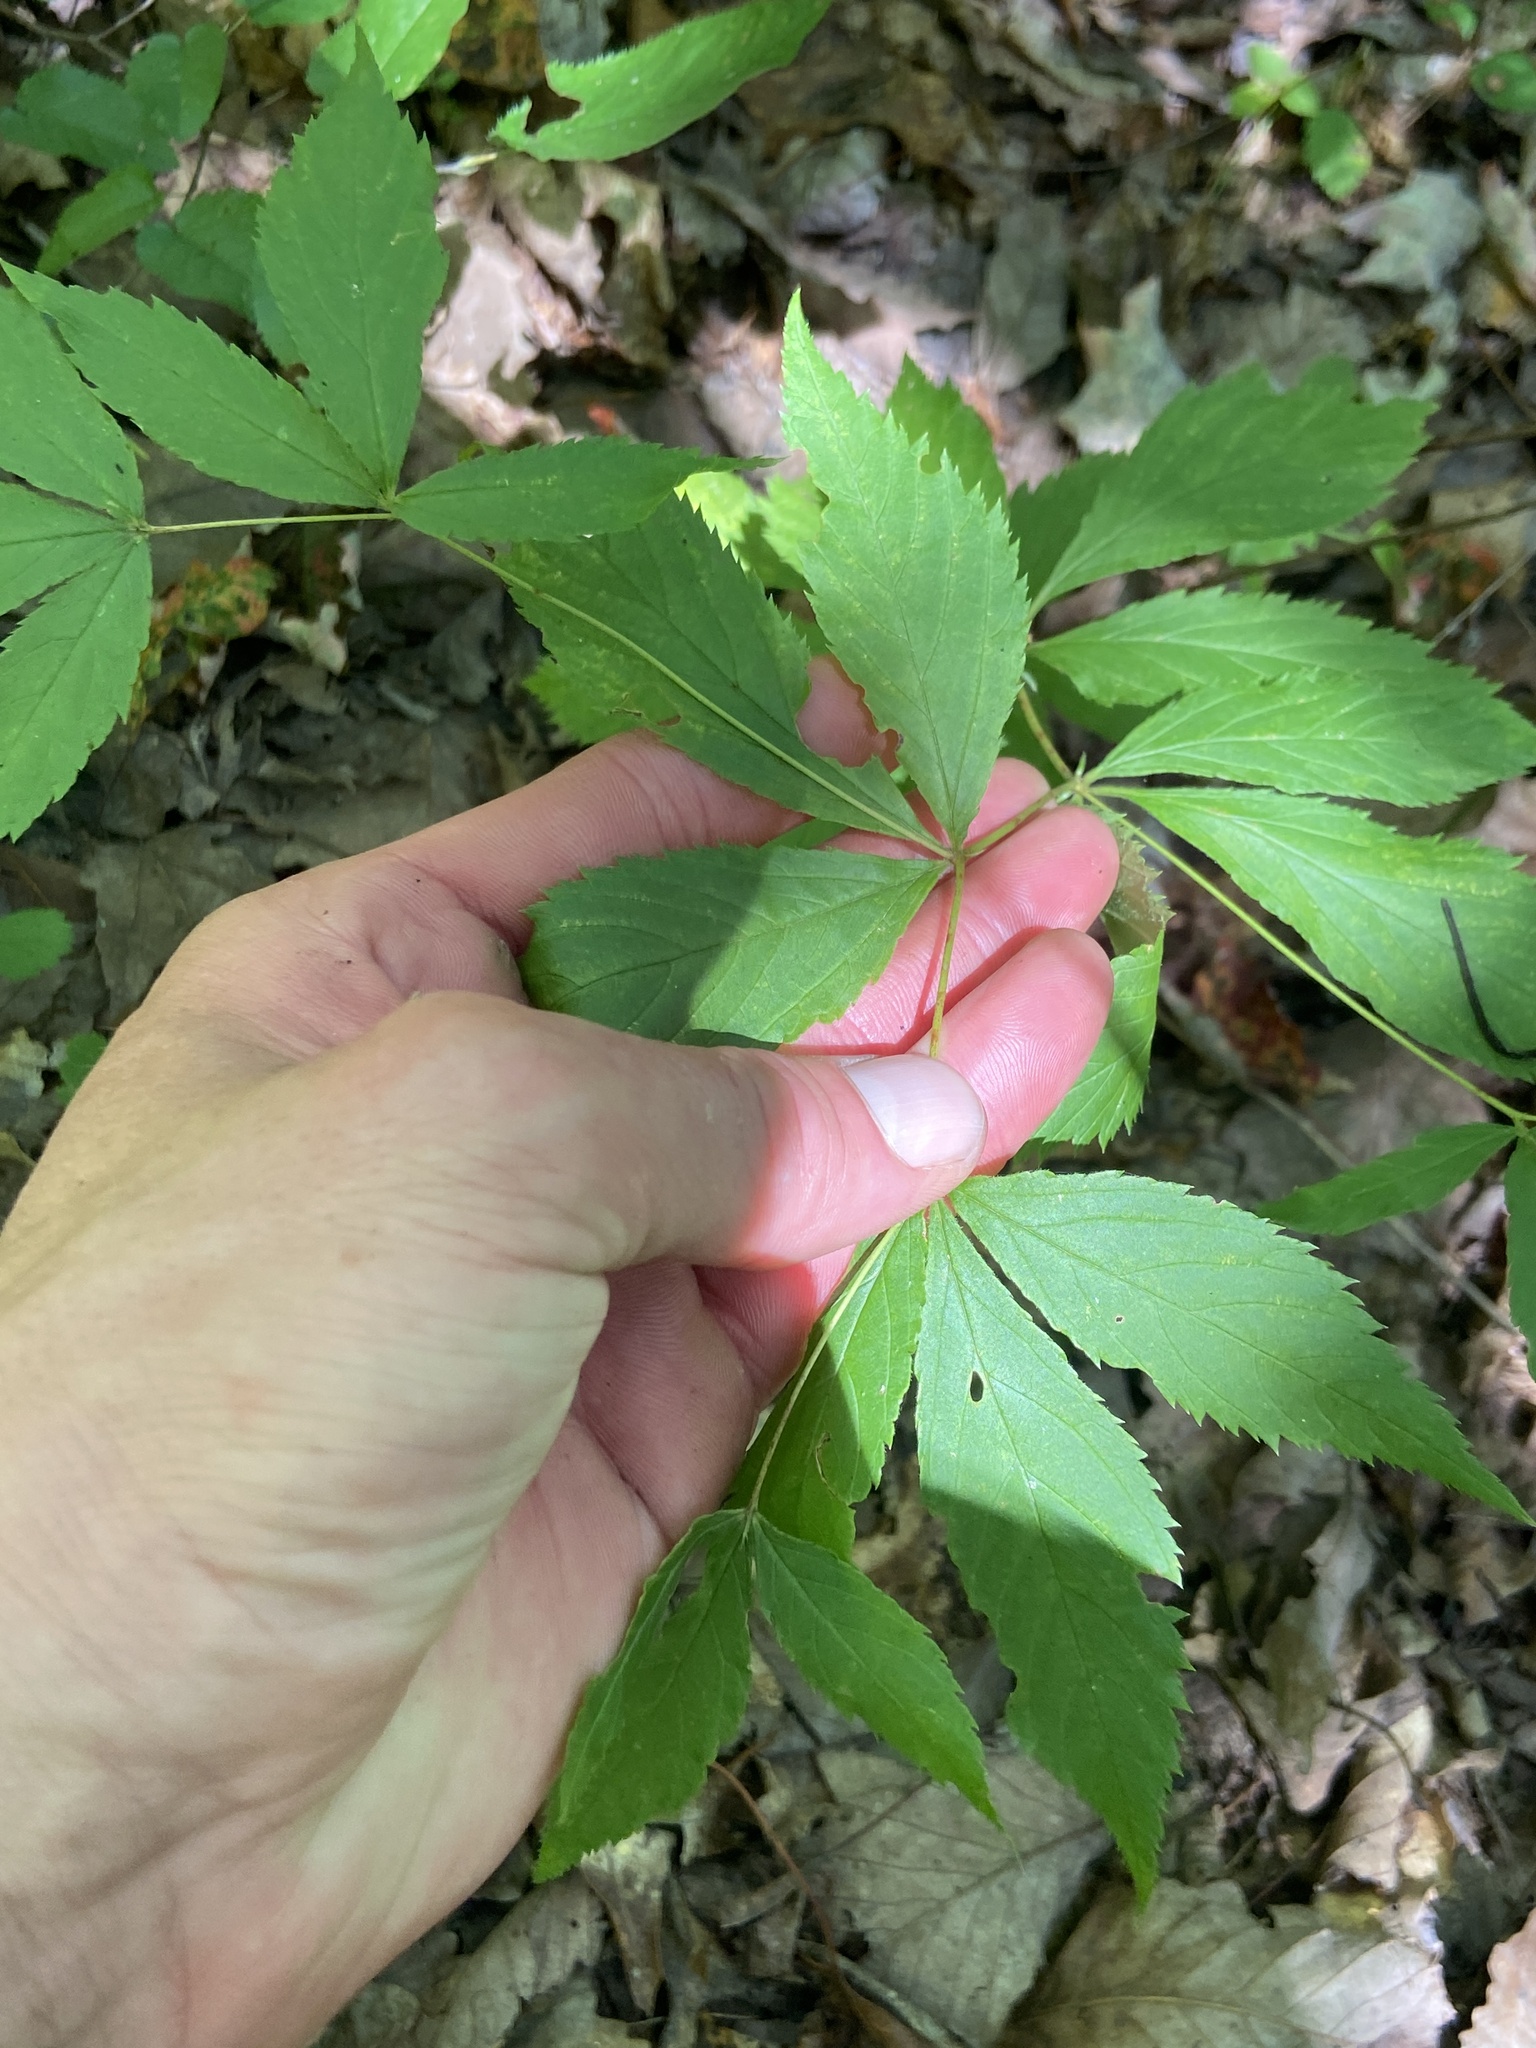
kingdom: Plantae
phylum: Tracheophyta
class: Magnoliopsida
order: Rosales
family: Rosaceae
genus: Gillenia
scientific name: Gillenia trifoliata
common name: Bowman's-root
